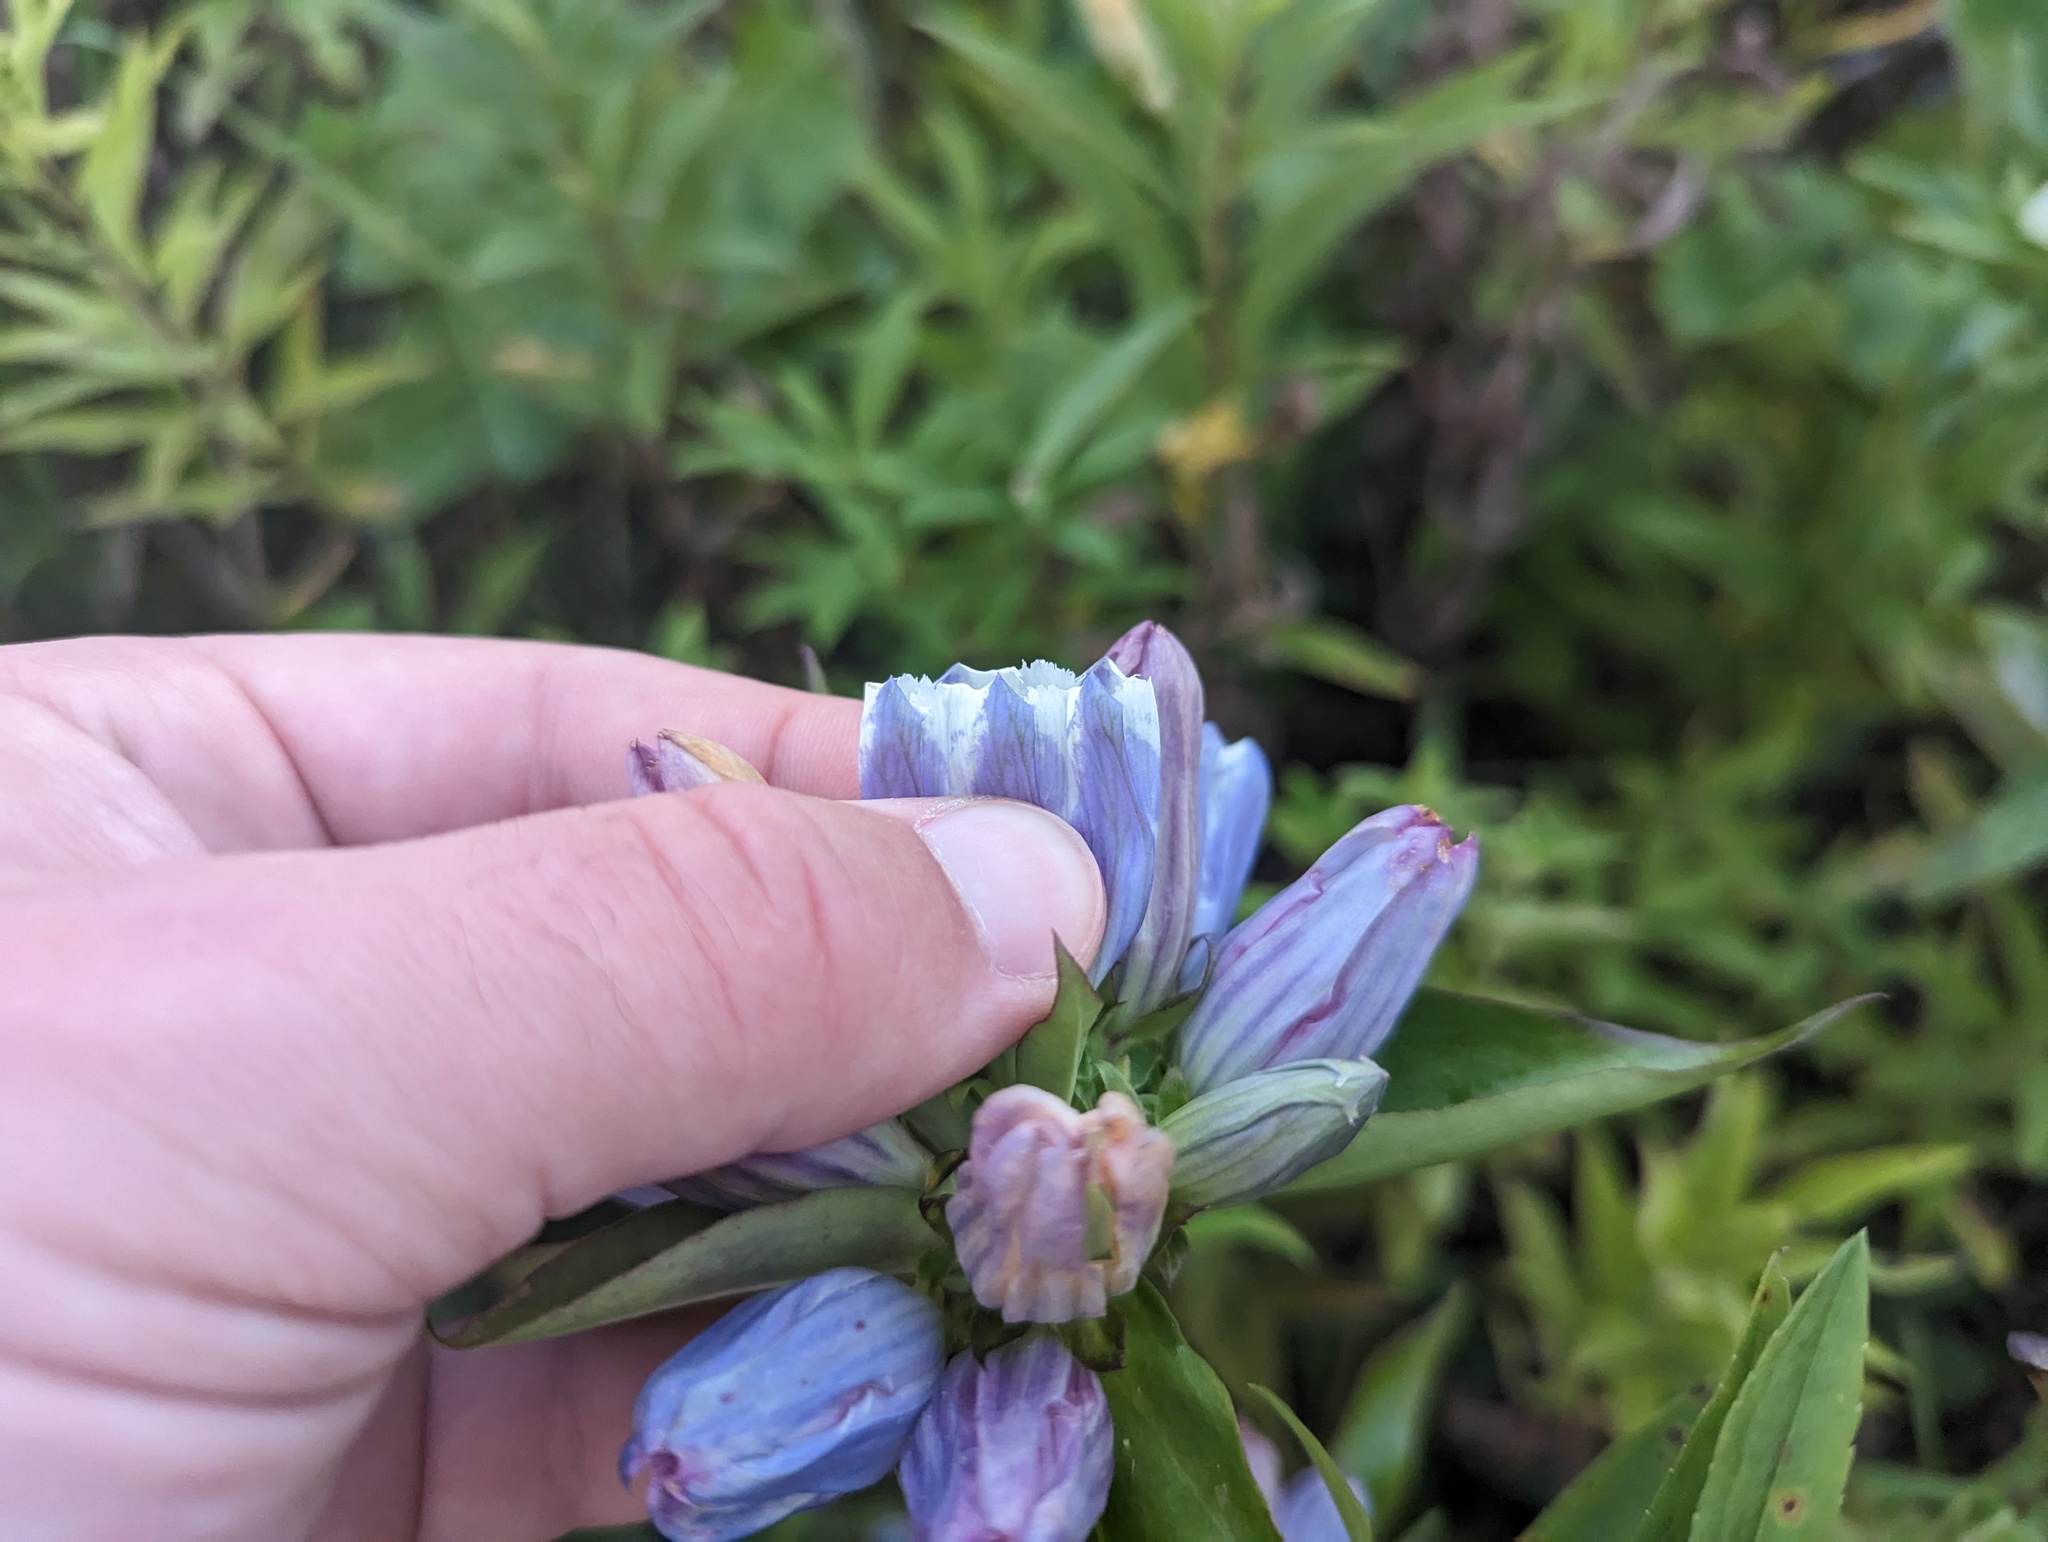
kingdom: Plantae
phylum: Tracheophyta
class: Magnoliopsida
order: Gentianales
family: Gentianaceae
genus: Gentiana
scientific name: Gentiana pallidocyanea
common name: Hybrid bottle gentian
